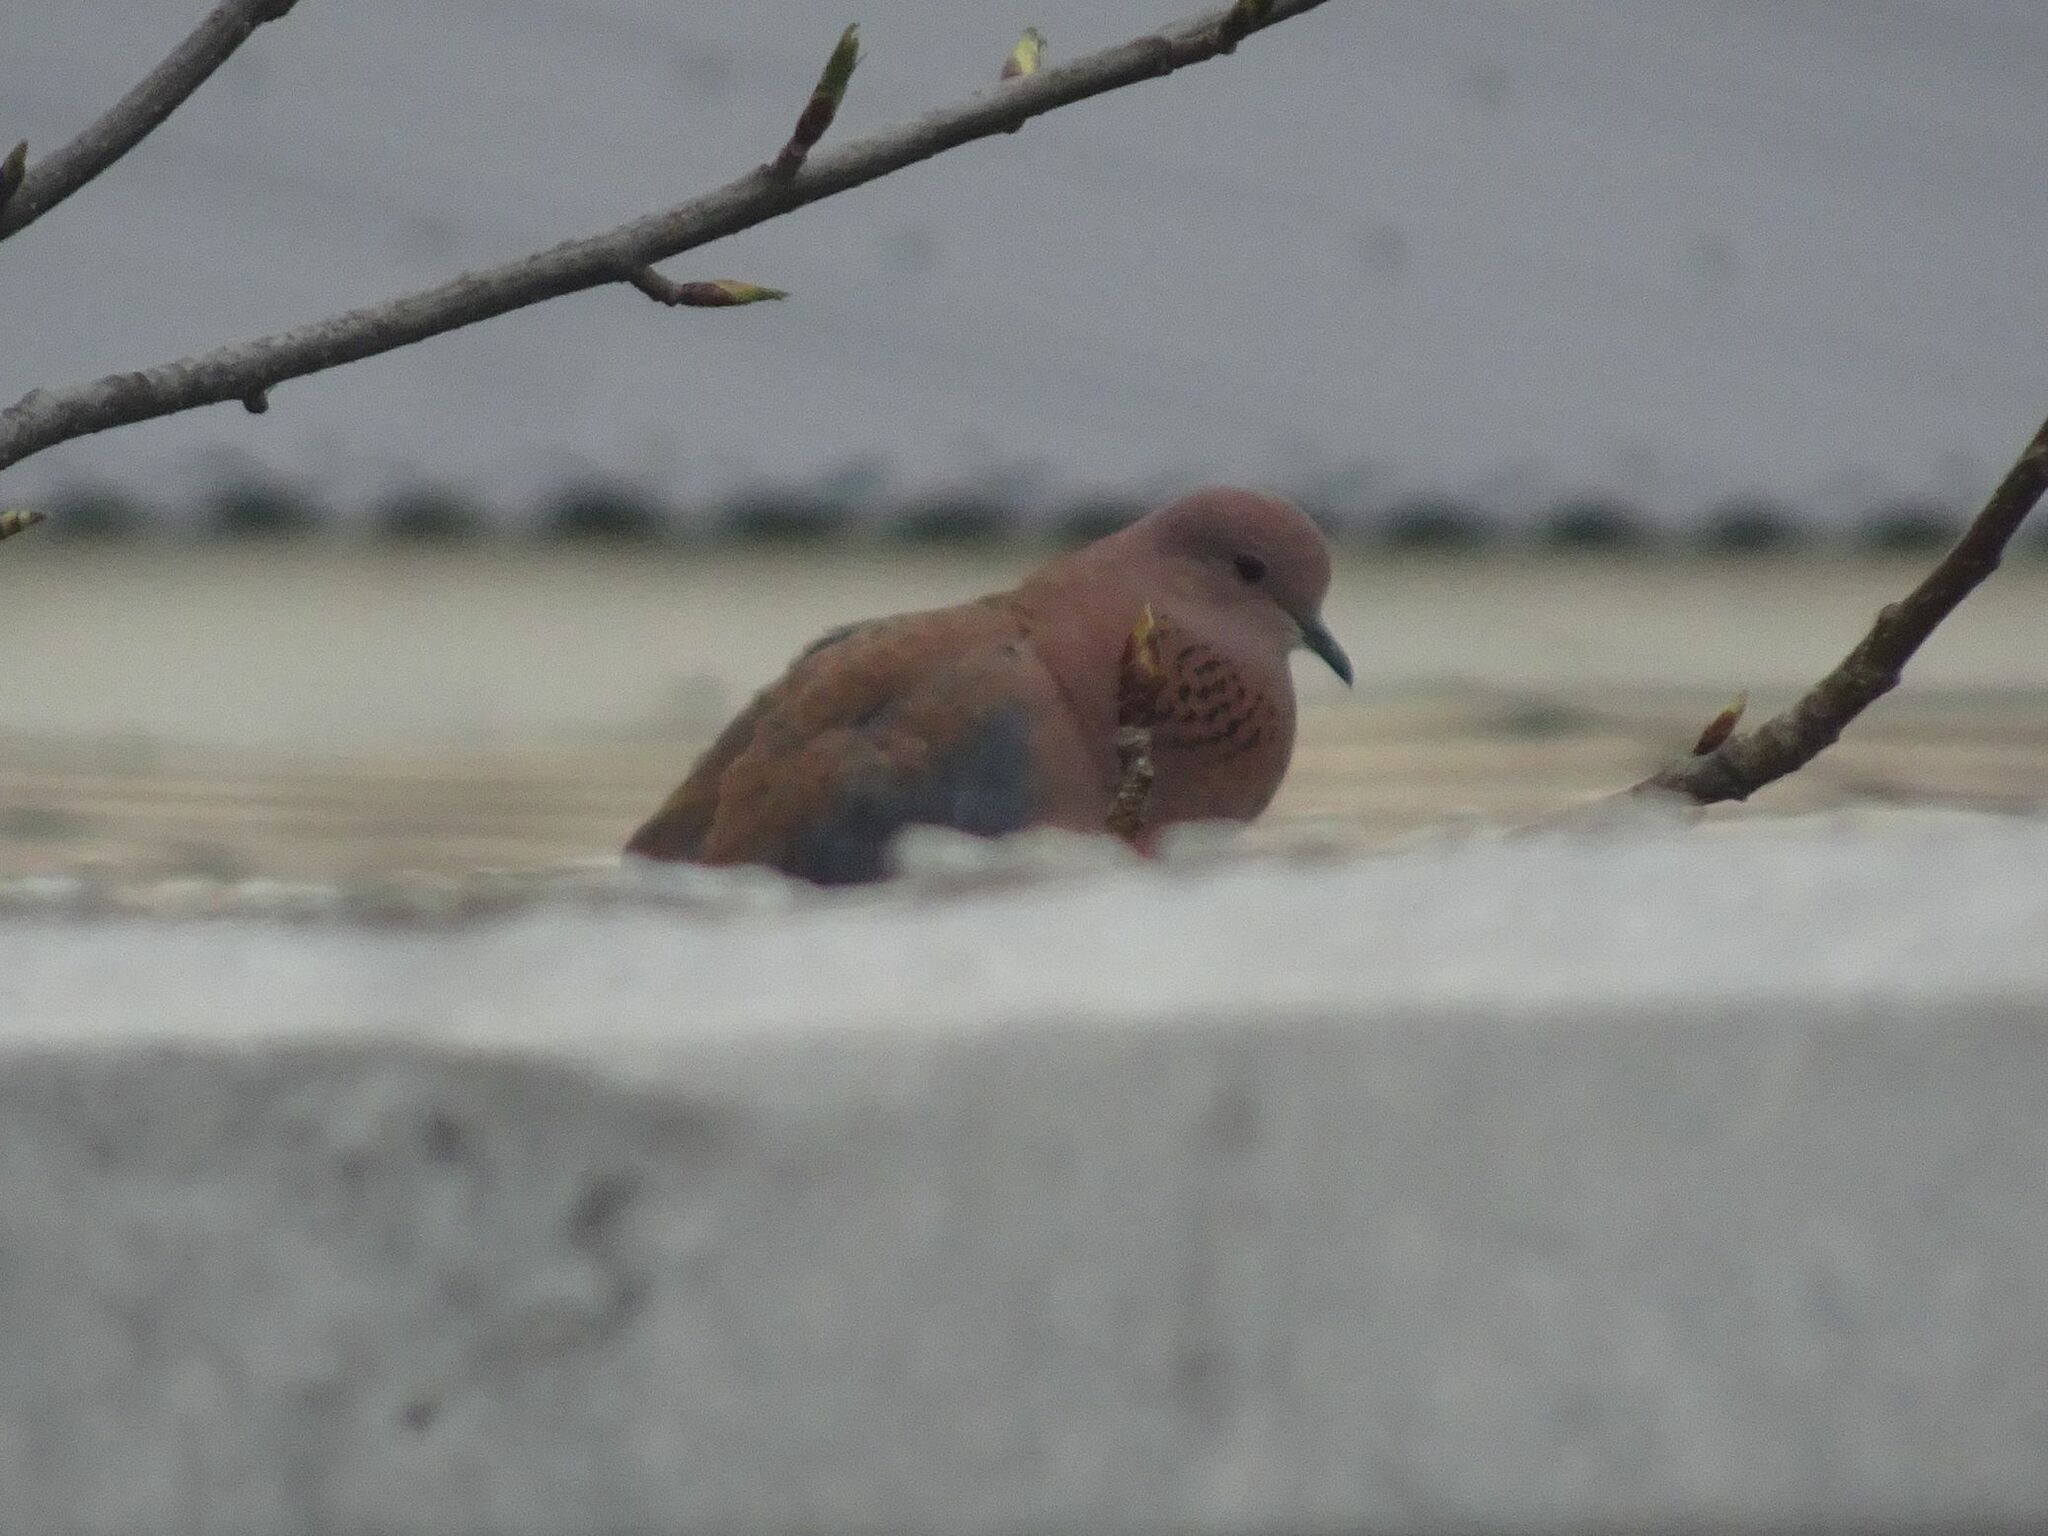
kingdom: Animalia
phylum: Chordata
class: Aves
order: Columbiformes
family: Columbidae
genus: Spilopelia
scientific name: Spilopelia senegalensis
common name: Laughing dove
